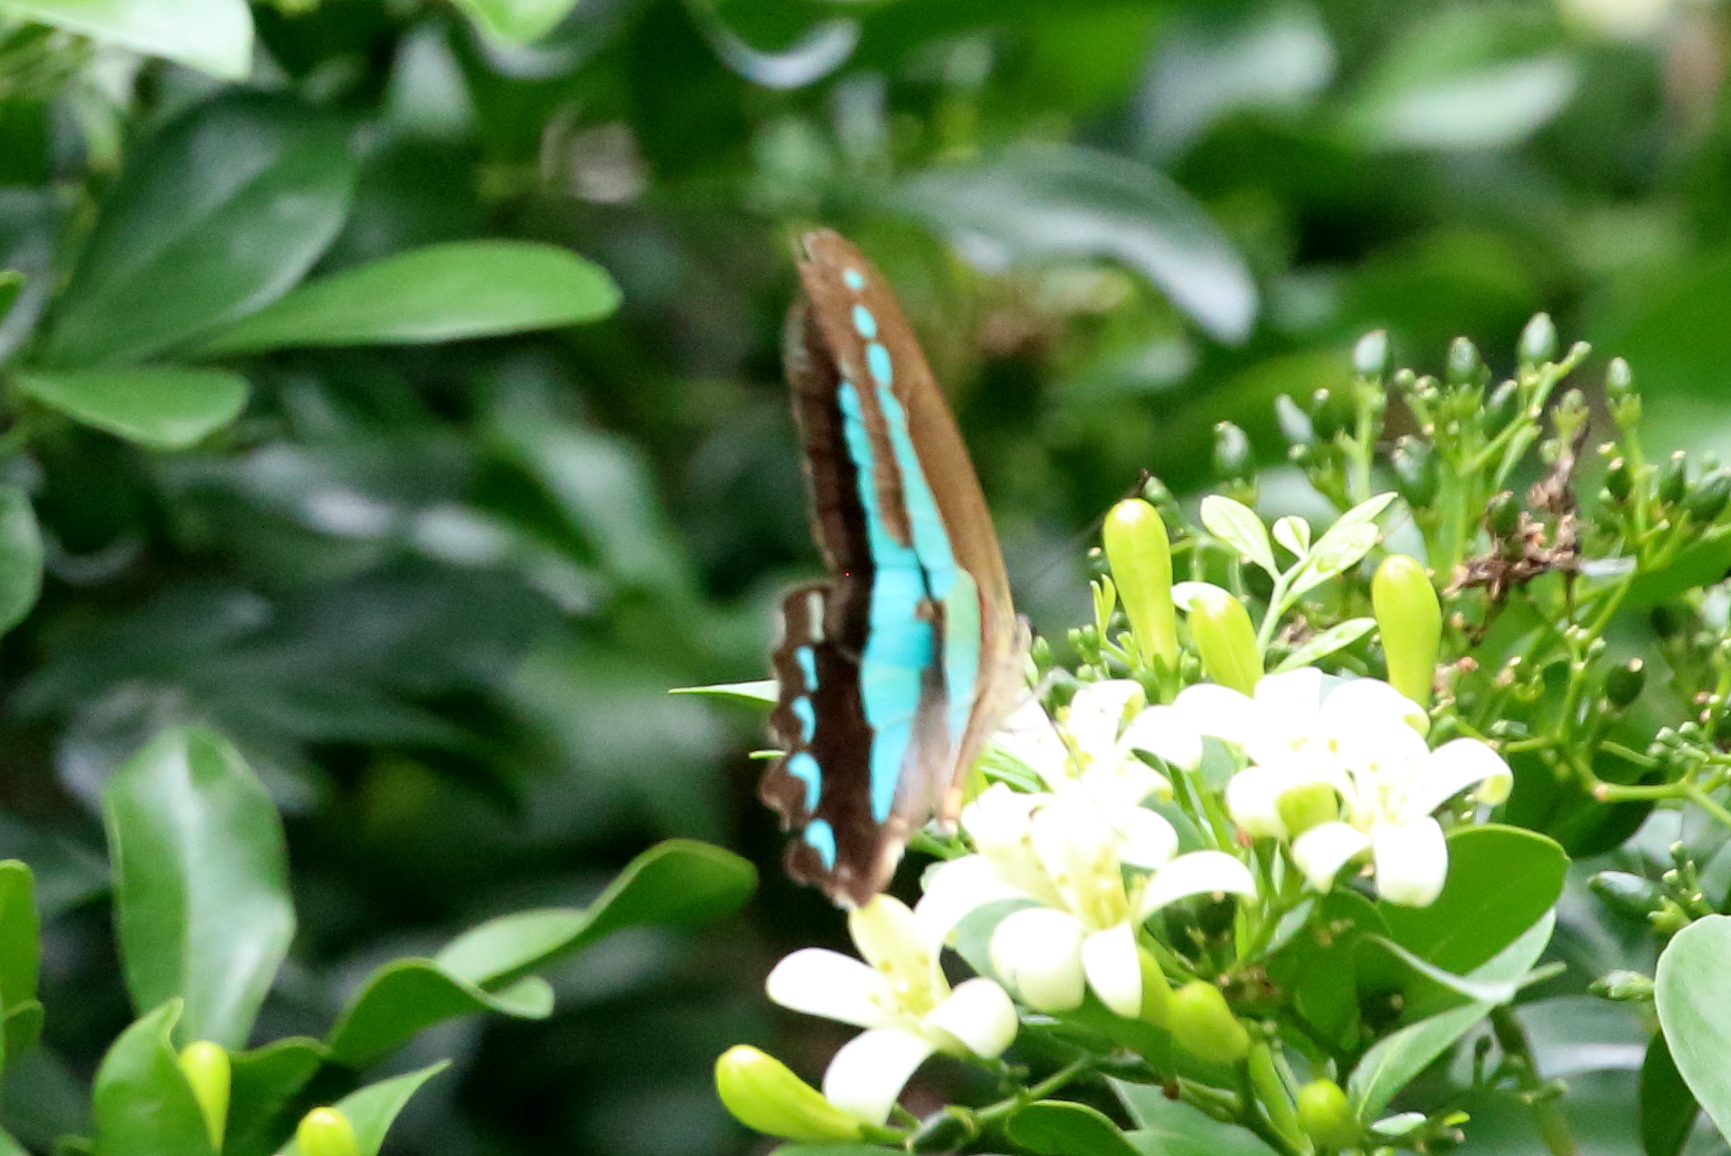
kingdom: Animalia
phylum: Arthropoda
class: Insecta
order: Lepidoptera
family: Papilionidae
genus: Graphium
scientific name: Graphium
